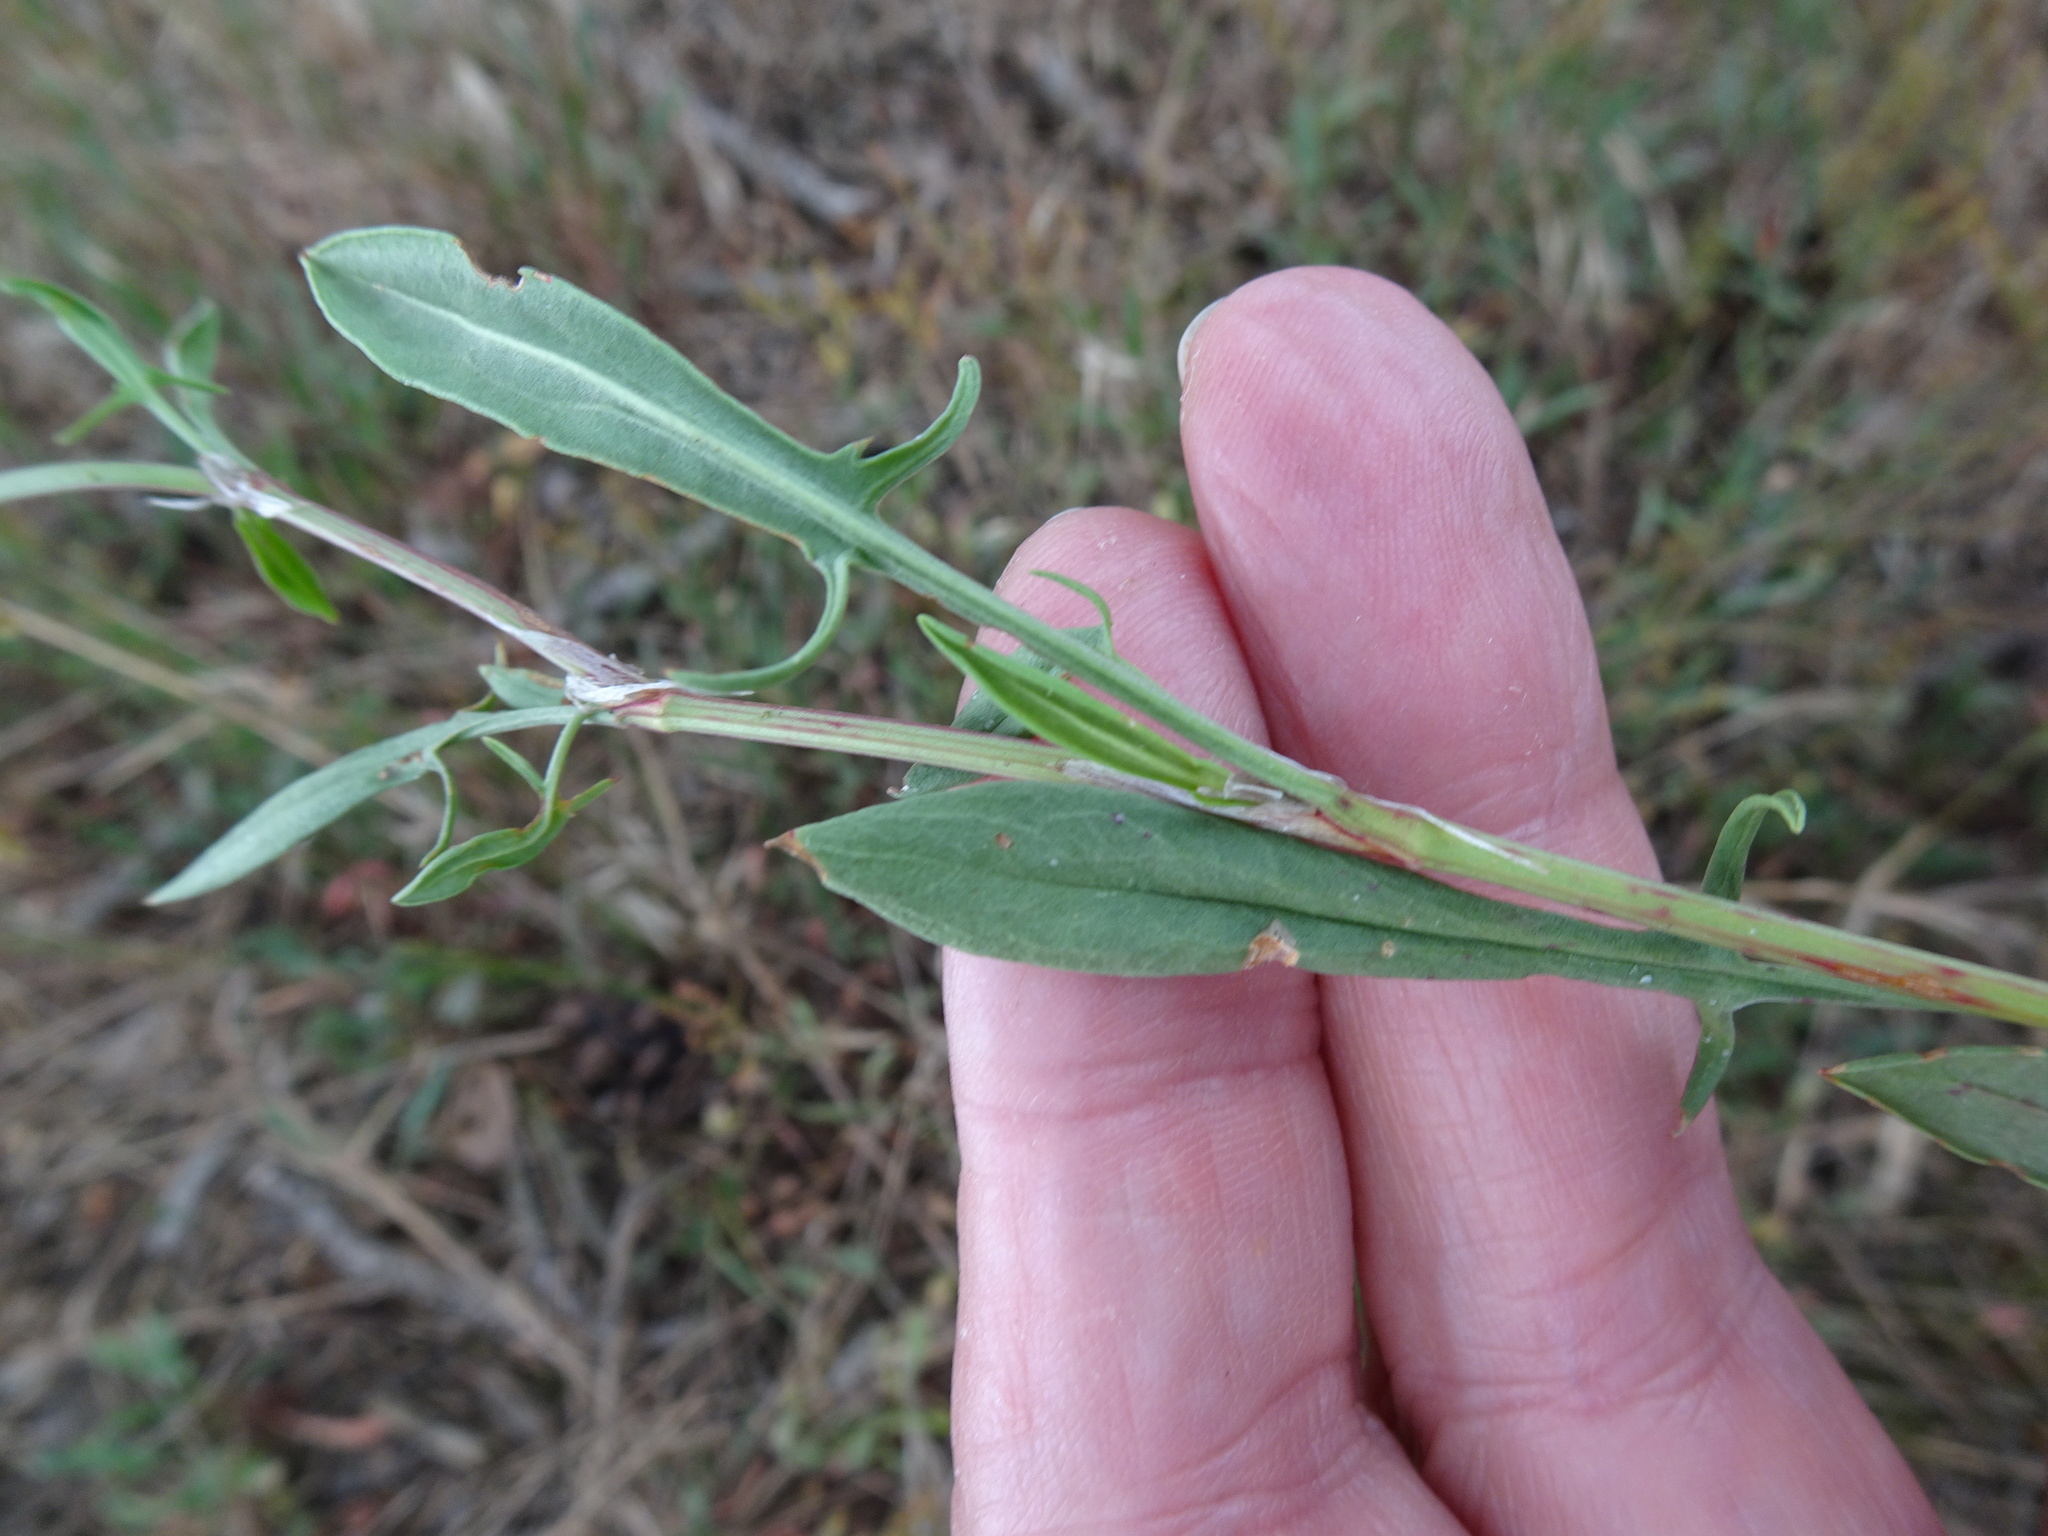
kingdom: Plantae
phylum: Tracheophyta
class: Magnoliopsida
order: Caryophyllales
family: Polygonaceae
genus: Rumex
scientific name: Rumex acetosella
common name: Common sheep sorrel
